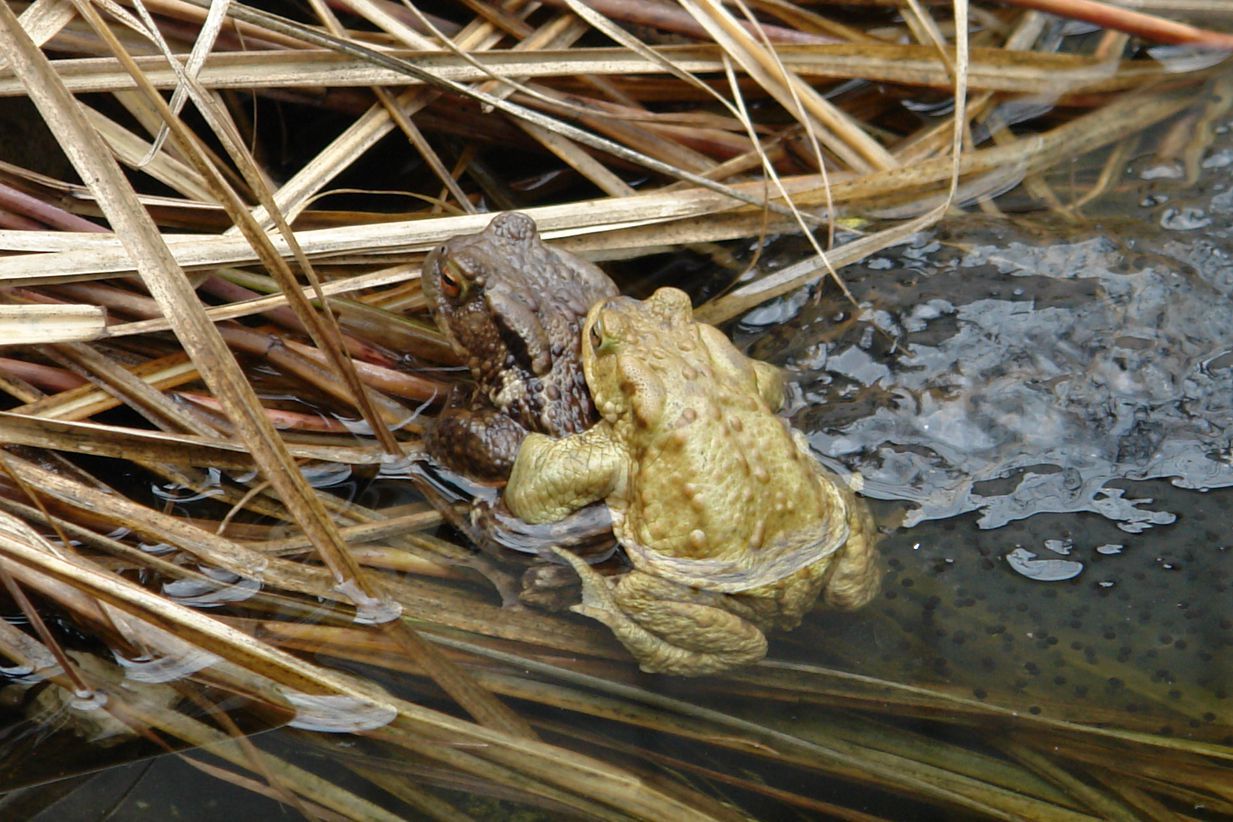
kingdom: Animalia
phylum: Chordata
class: Amphibia
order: Anura
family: Bufonidae
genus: Bufo
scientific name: Bufo bufo
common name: Common toad
